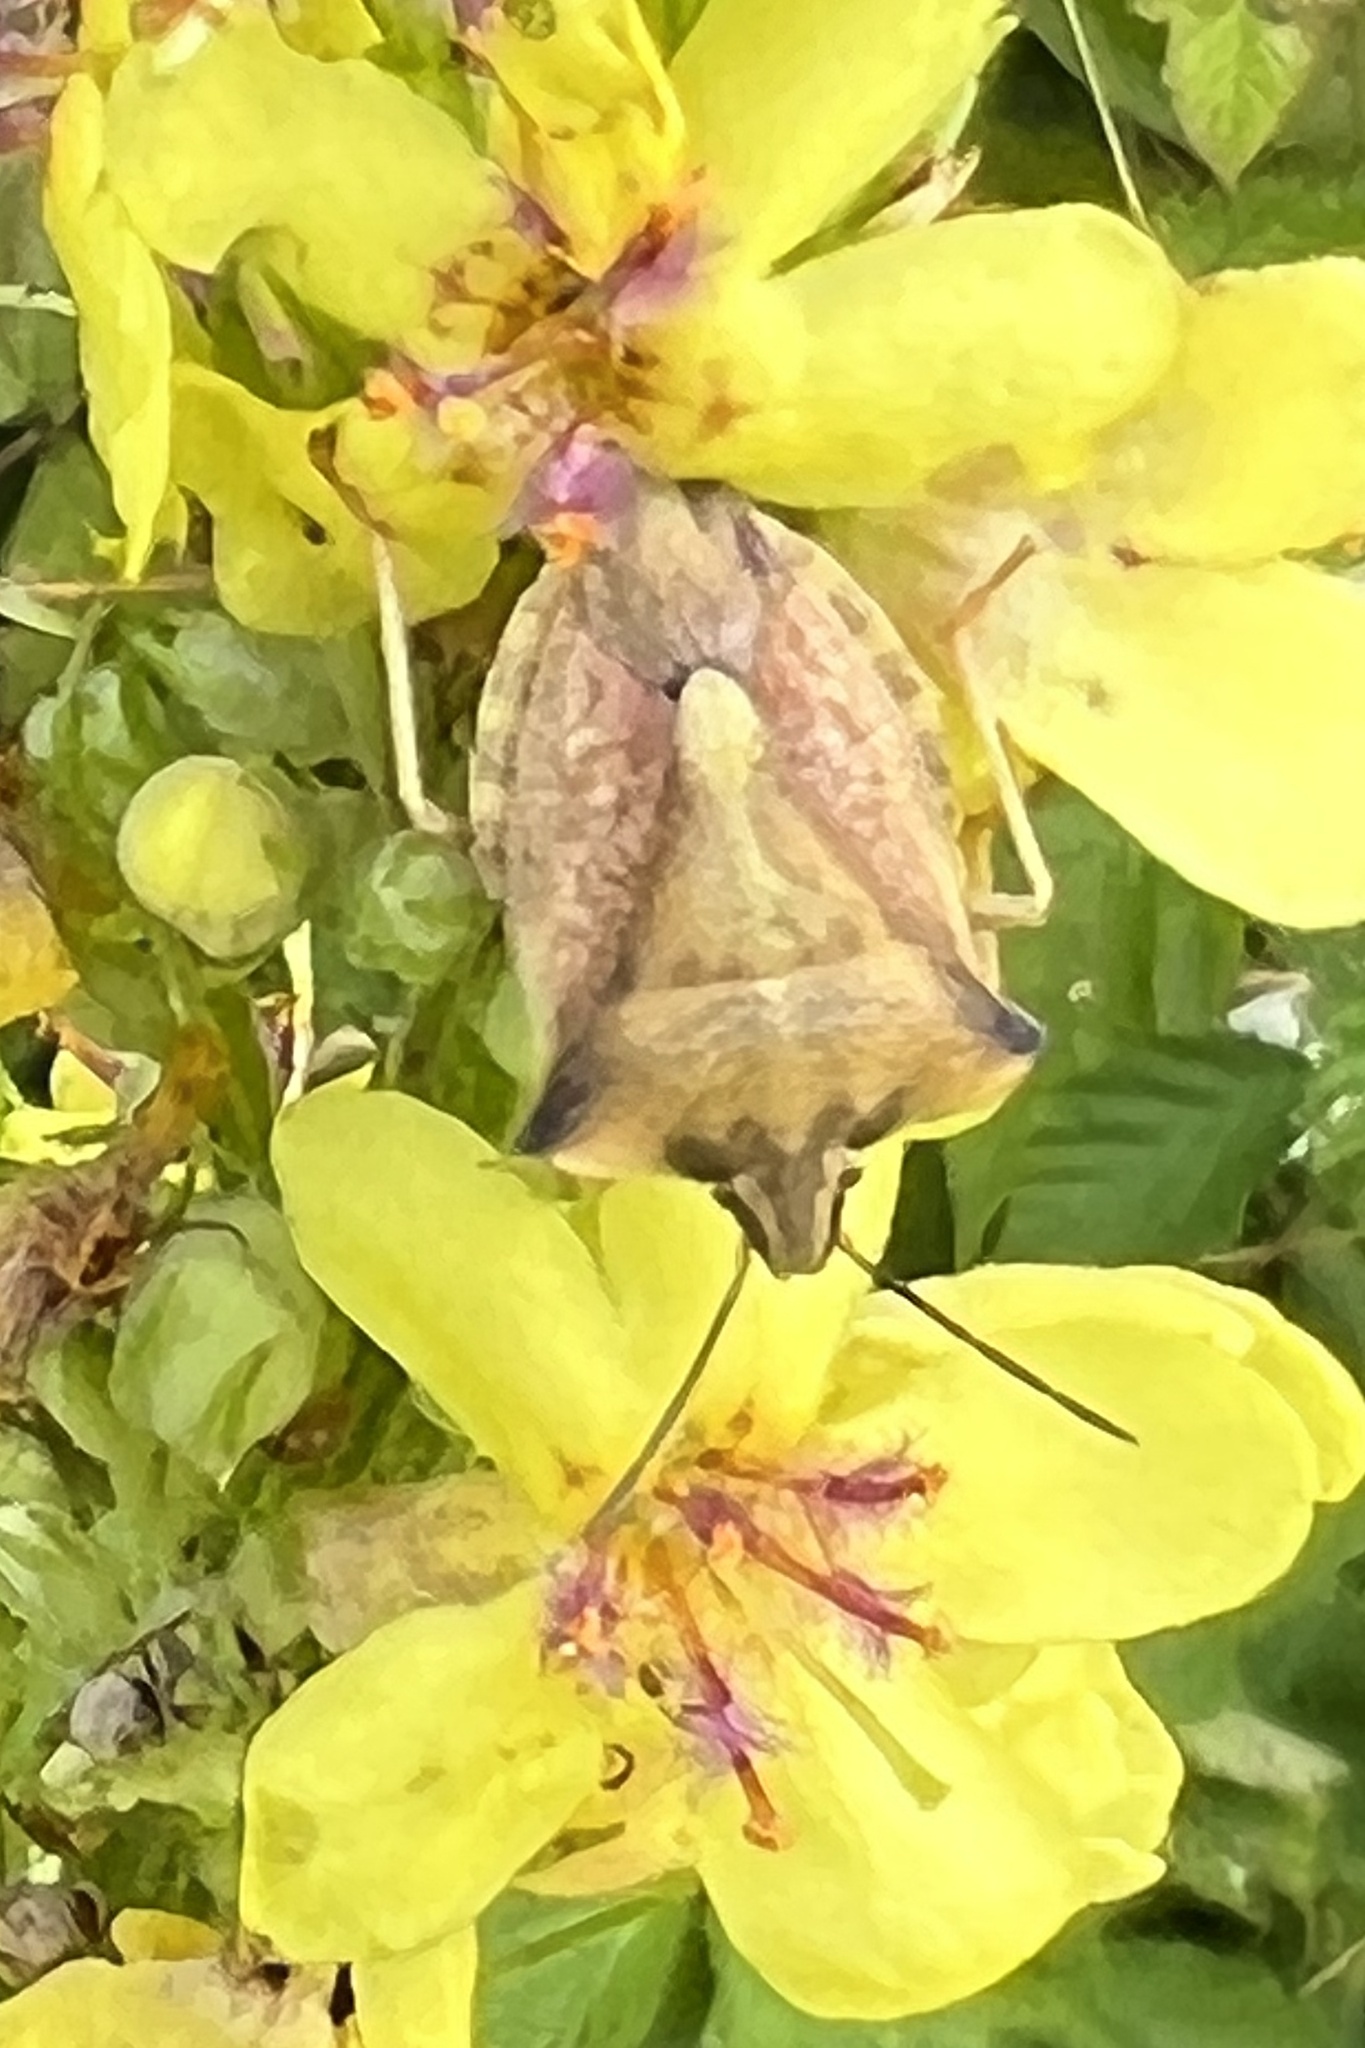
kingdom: Animalia
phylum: Arthropoda
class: Insecta
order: Hemiptera
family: Pentatomidae
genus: Carpocoris
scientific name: Carpocoris fuscispinus
